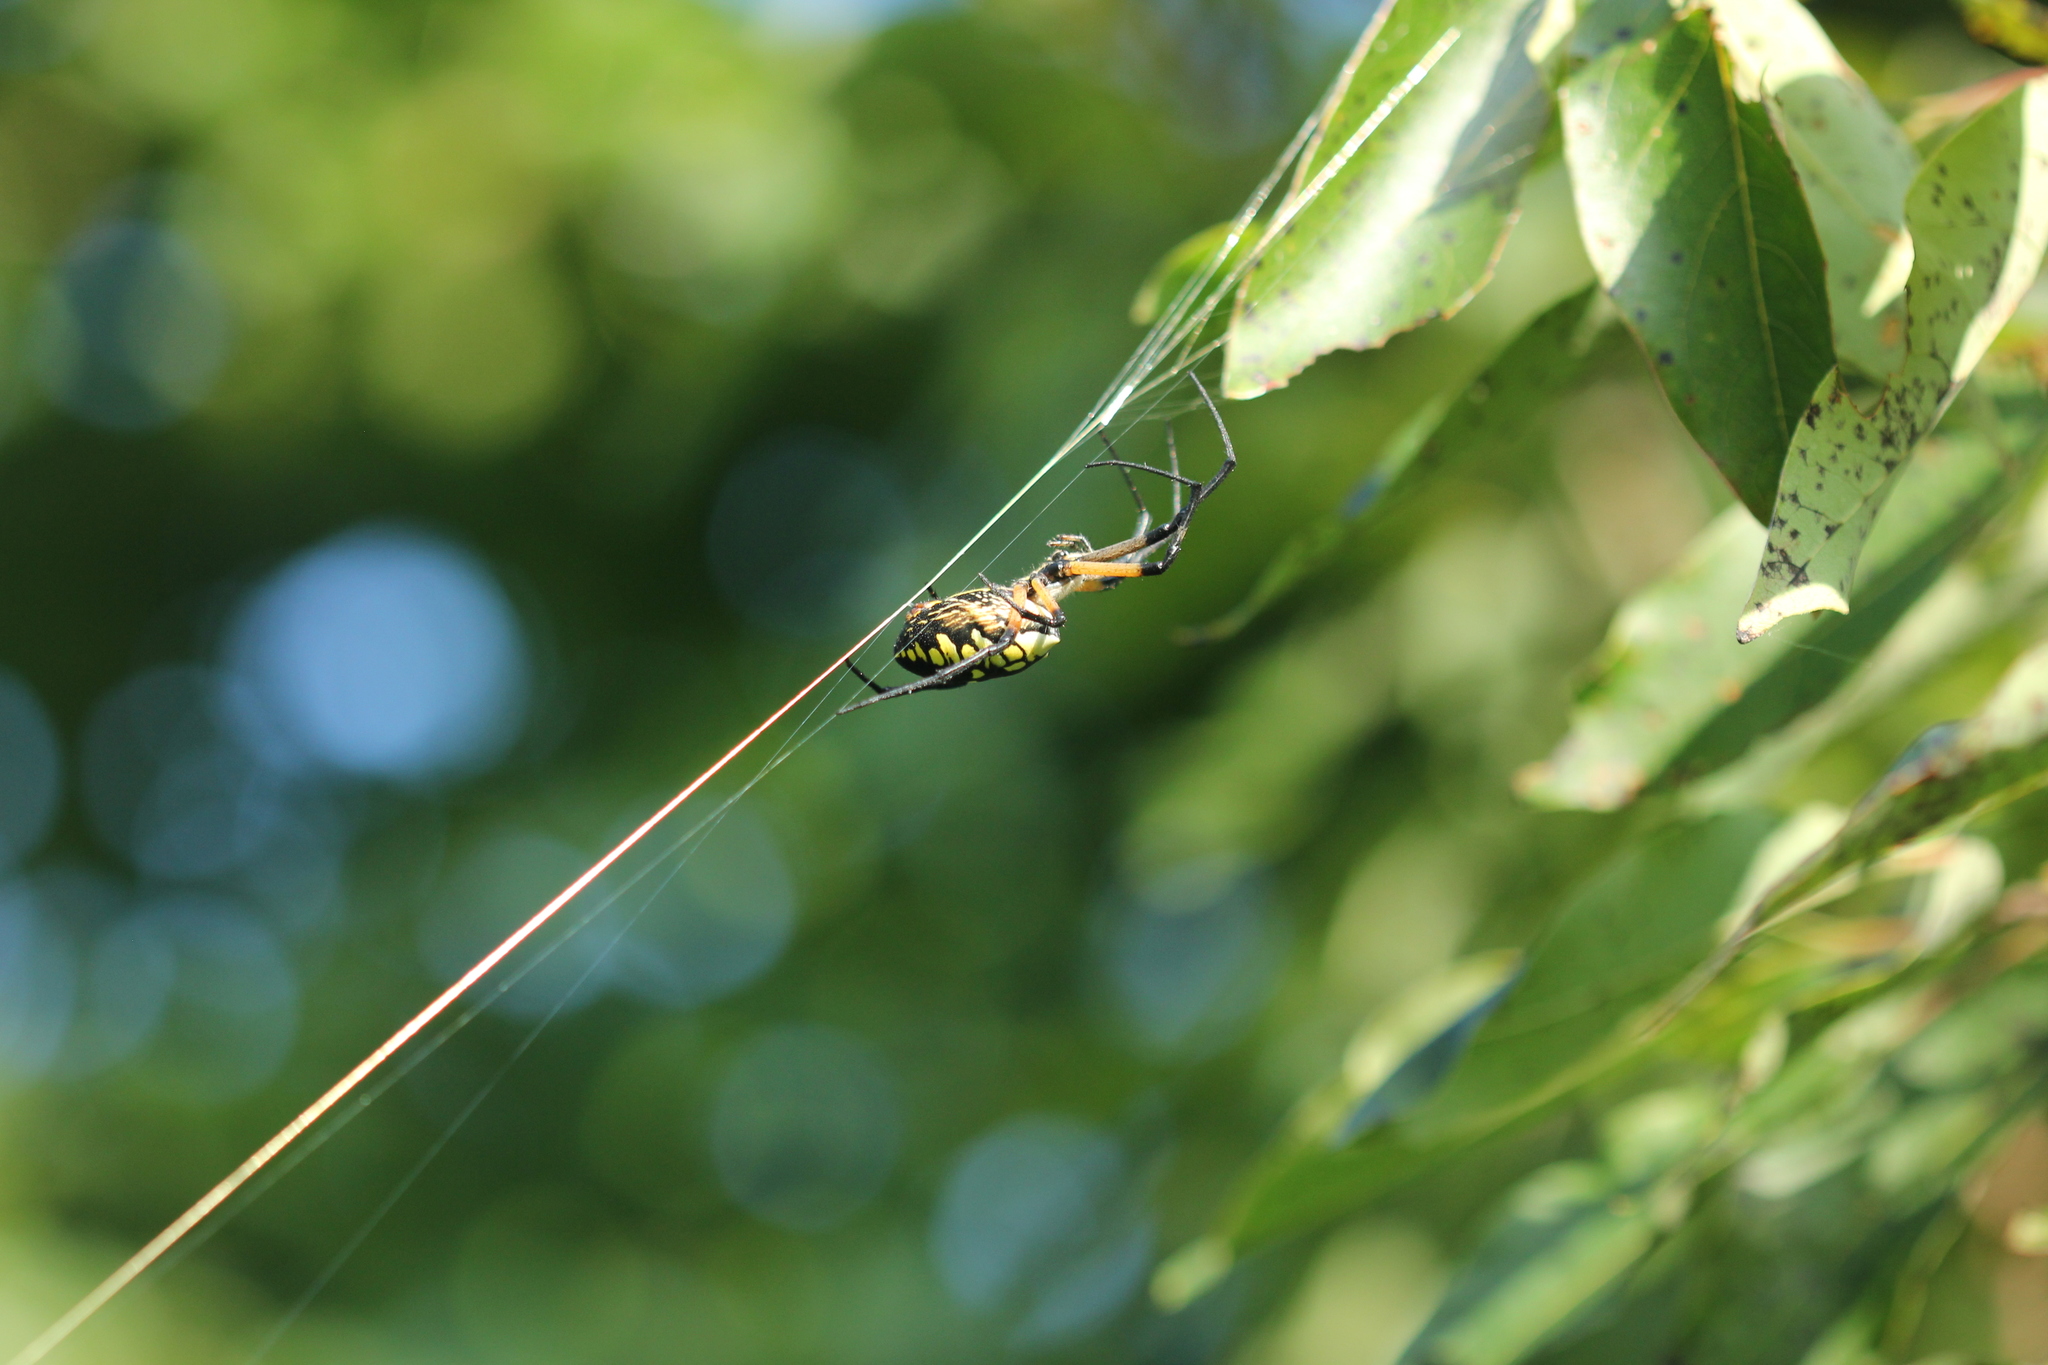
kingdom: Animalia
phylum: Arthropoda
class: Arachnida
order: Araneae
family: Araneidae
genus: Argiope
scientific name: Argiope aurantia
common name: Orb weavers
